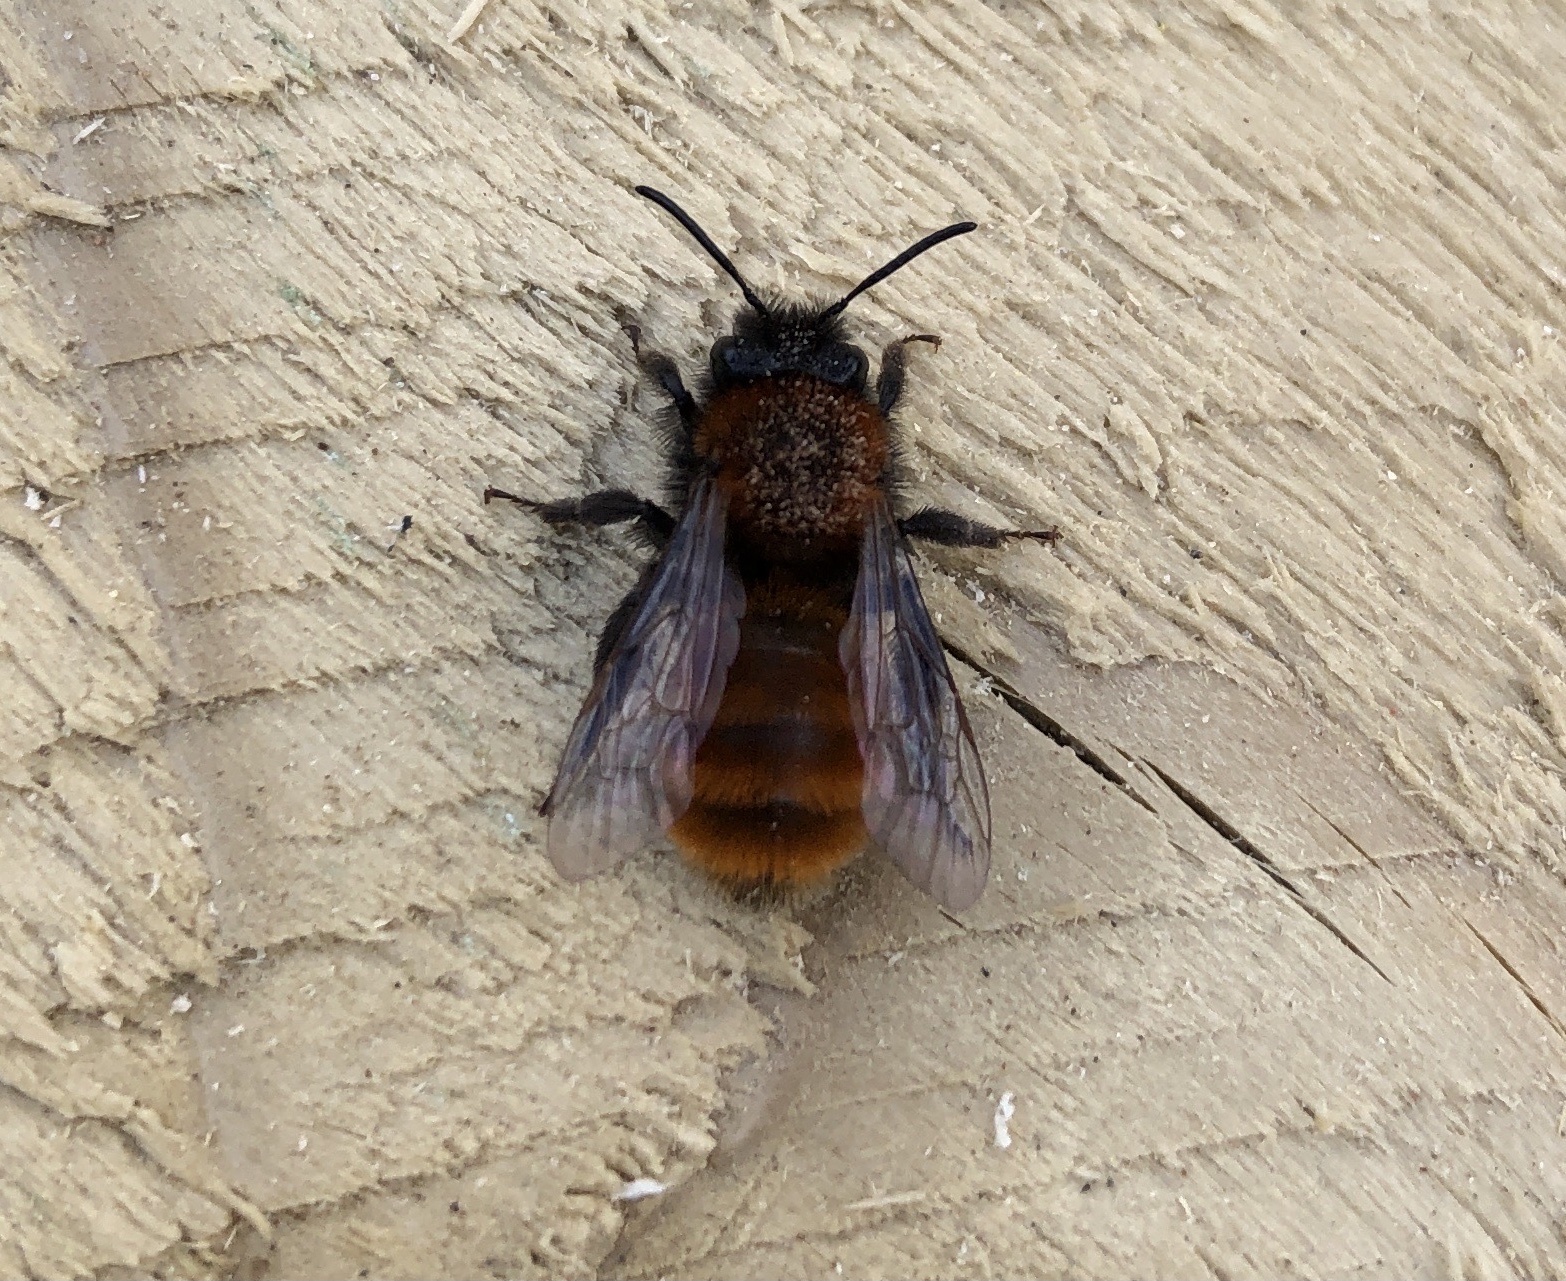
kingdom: Animalia
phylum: Arthropoda
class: Insecta
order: Hymenoptera
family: Andrenidae
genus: Andrena
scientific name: Andrena fulva
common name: Tawny mining bee
